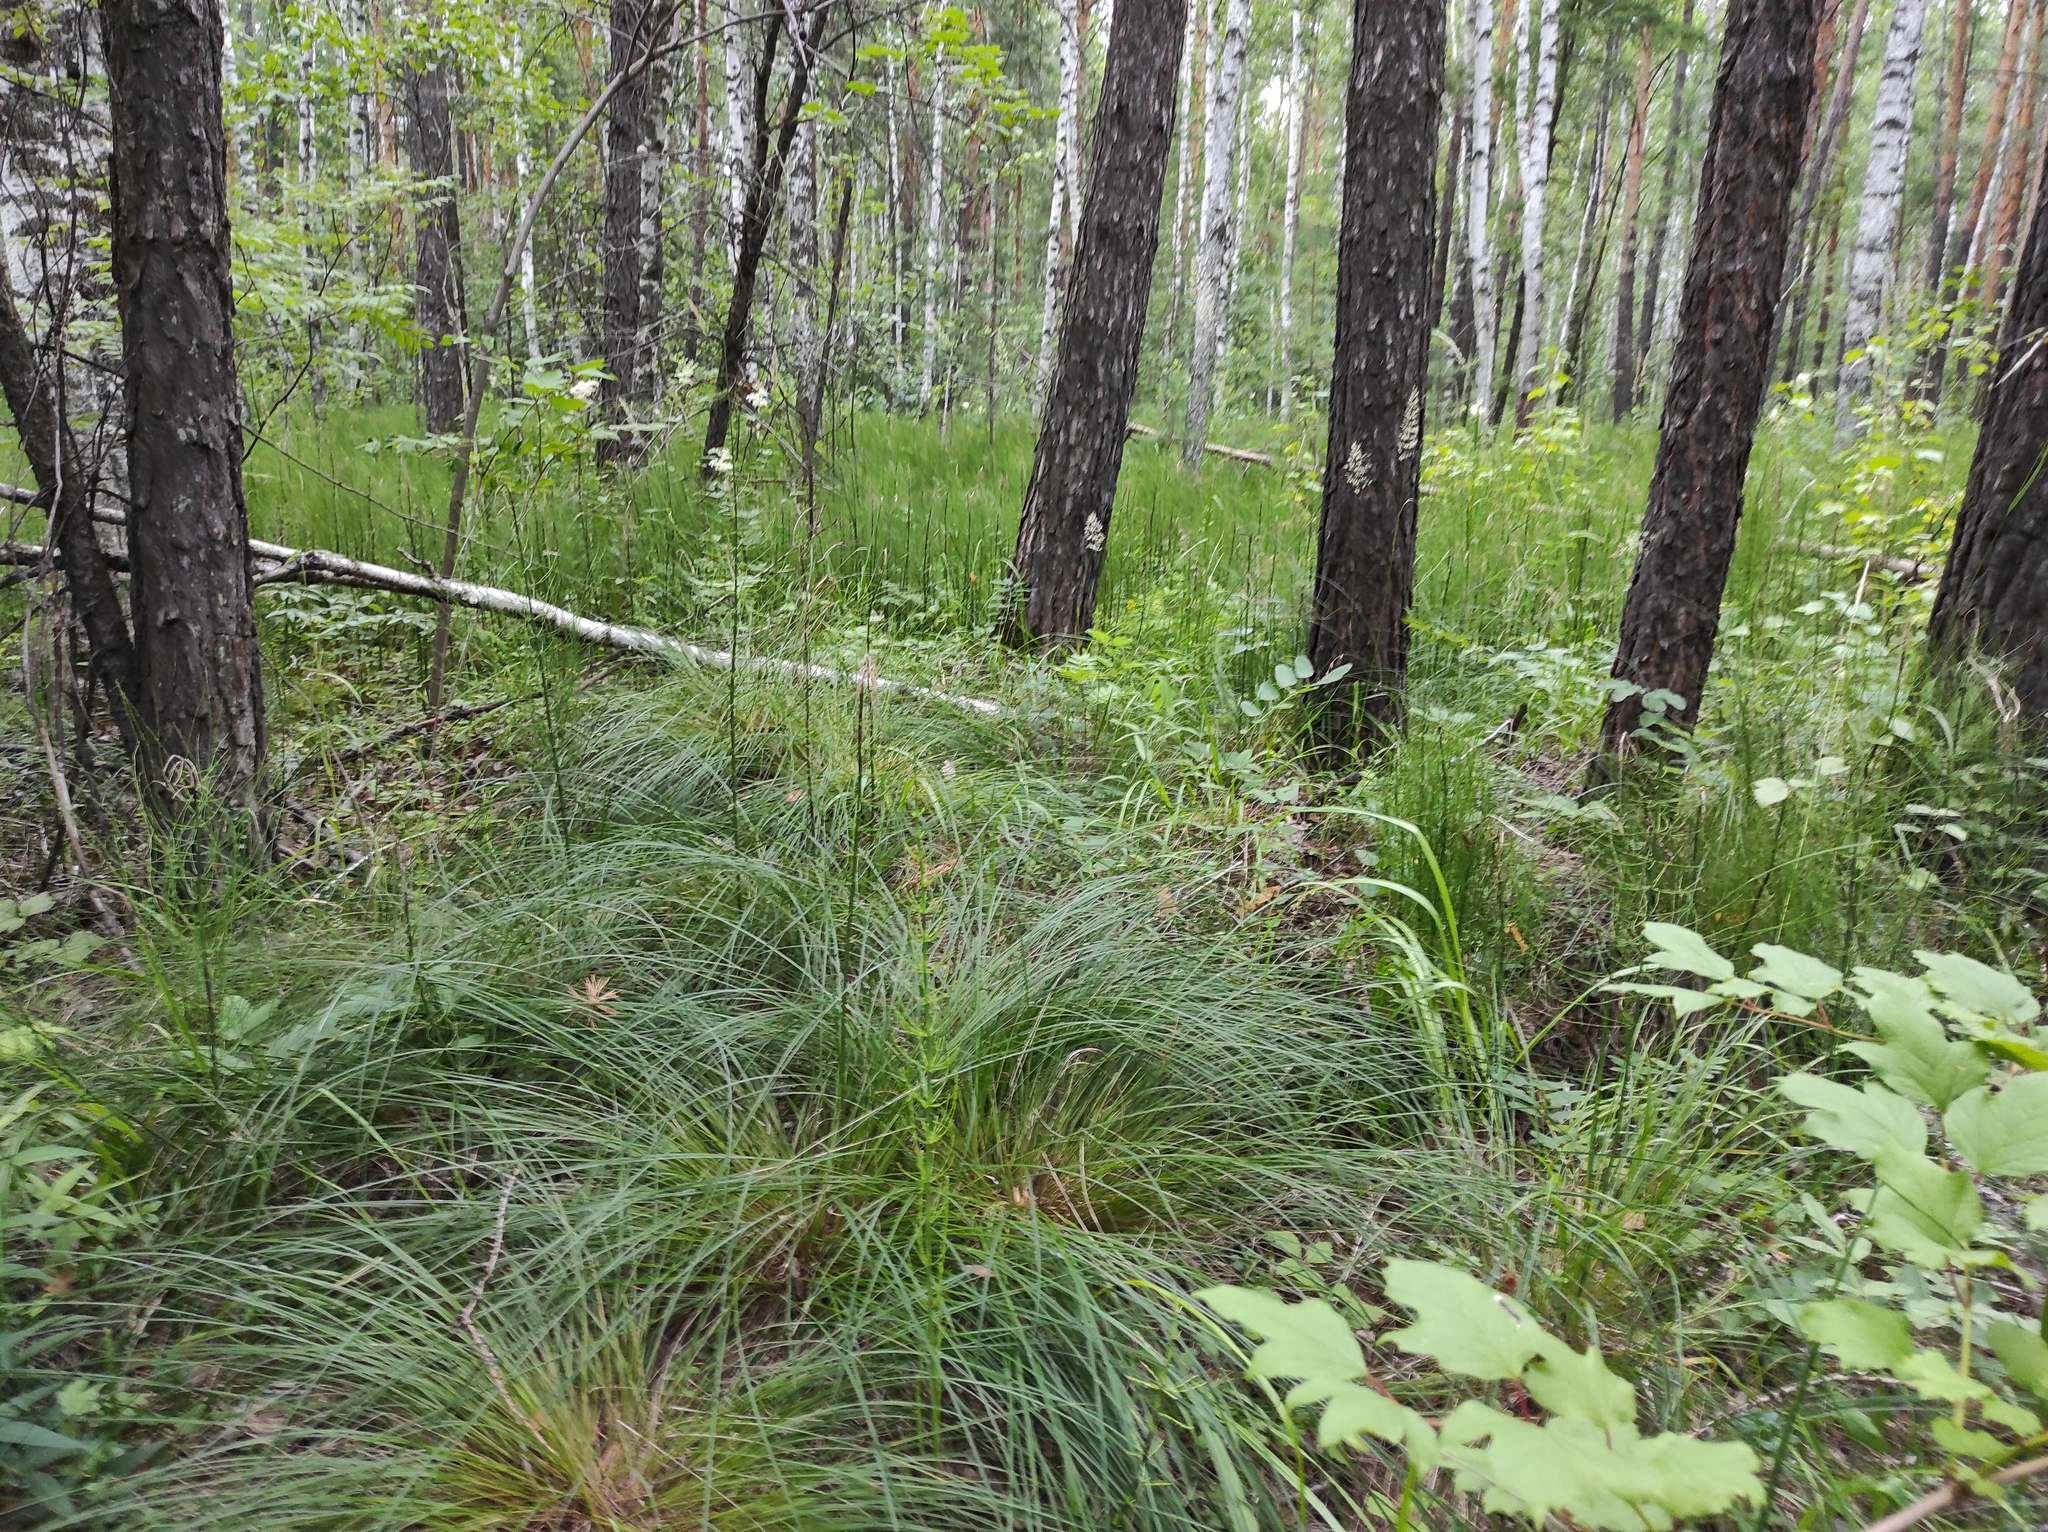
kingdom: Plantae
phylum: Tracheophyta
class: Pinopsida
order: Pinales
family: Pinaceae
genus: Pinus
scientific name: Pinus sylvestris
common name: Scots pine
